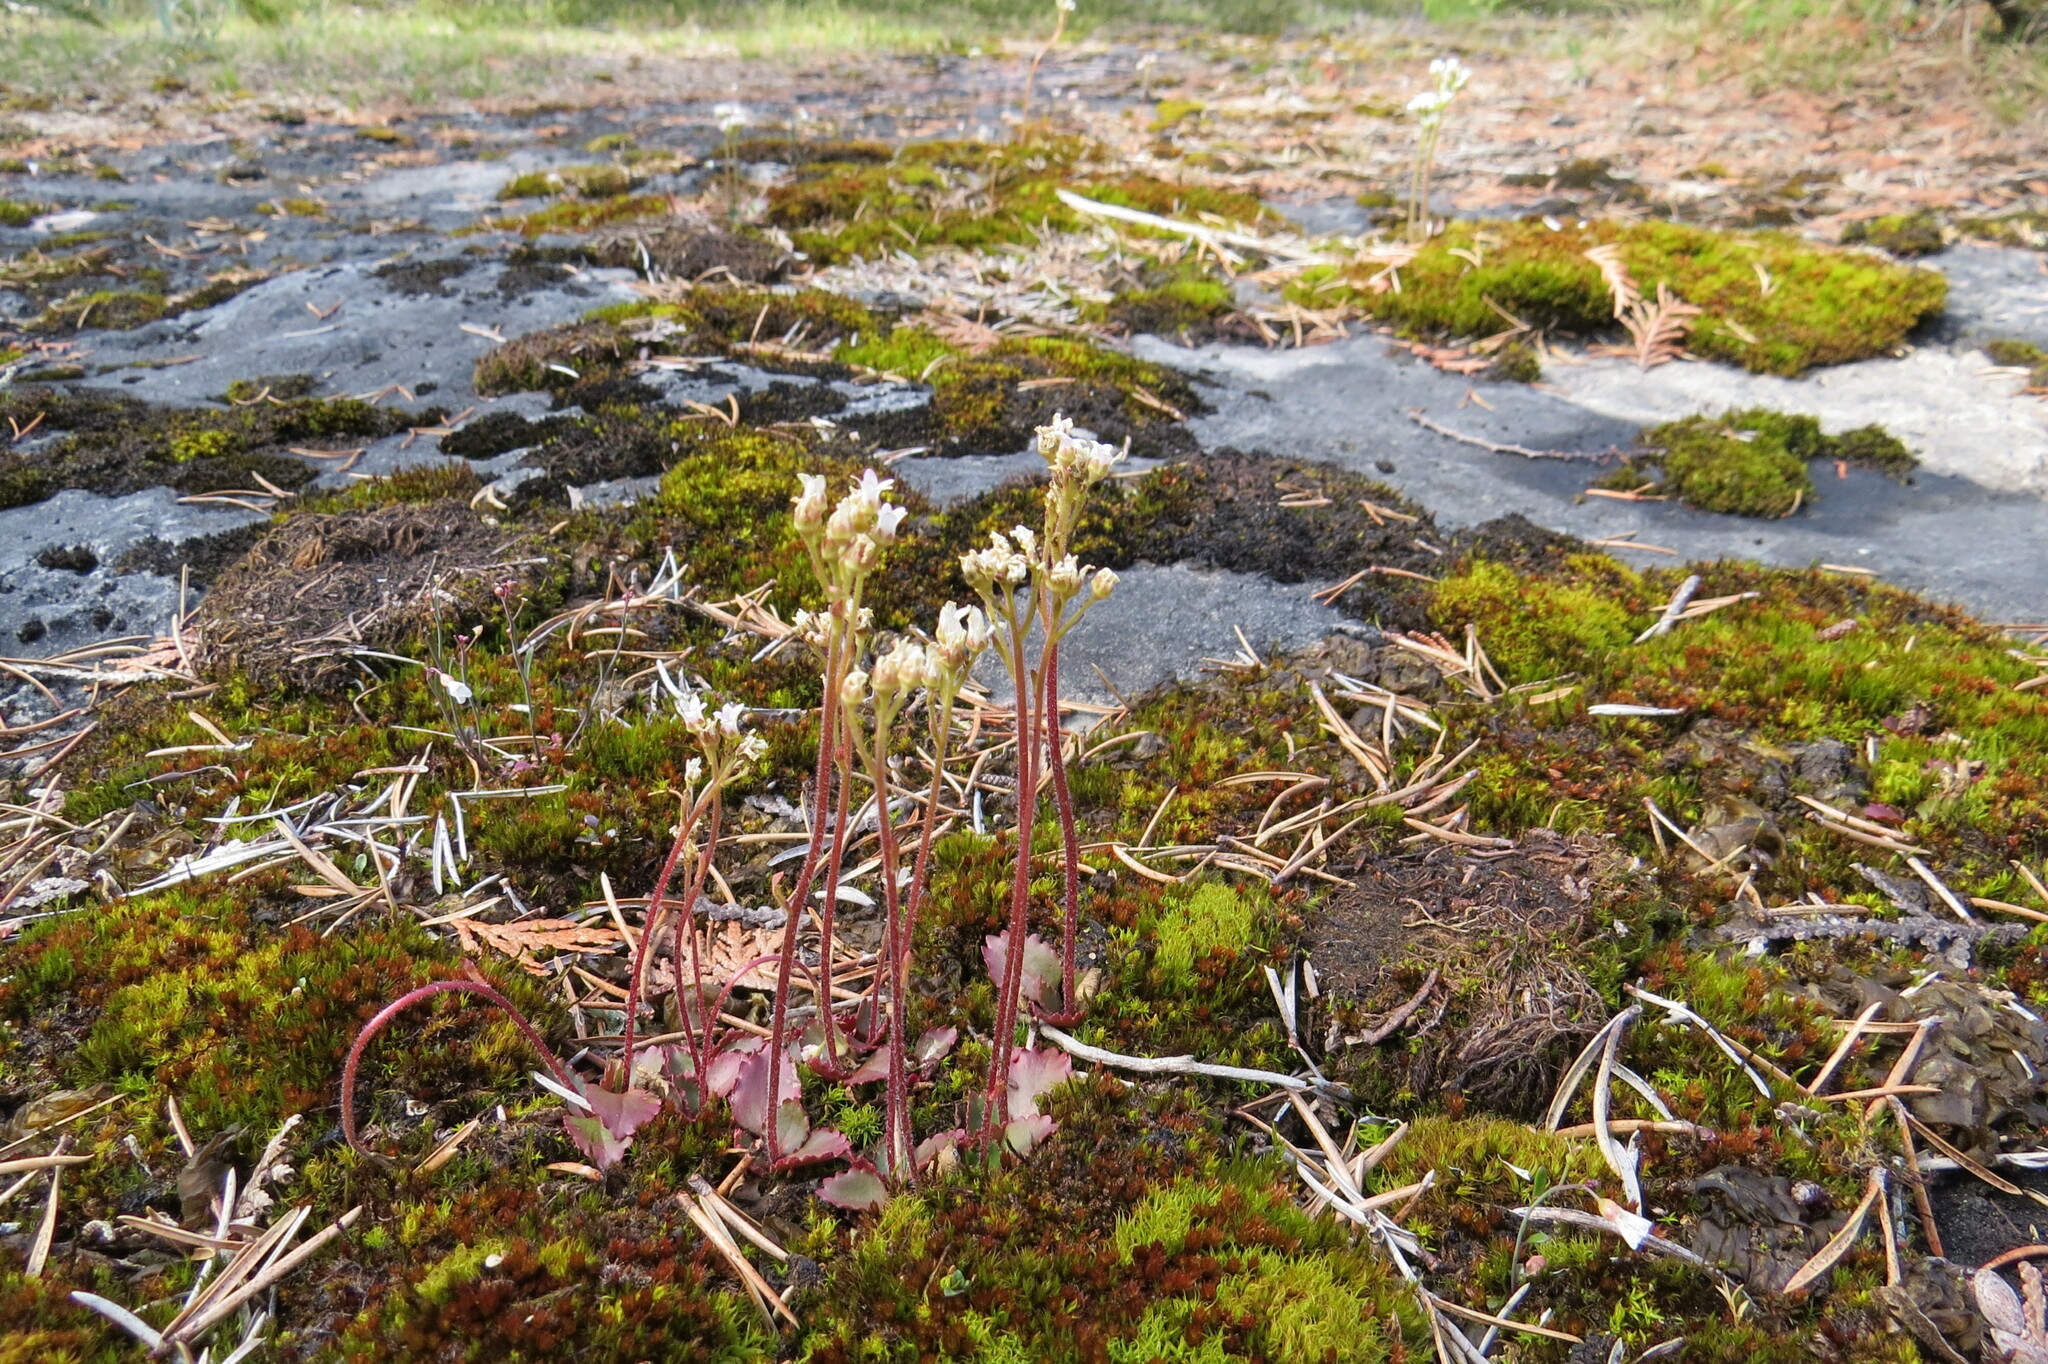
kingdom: Plantae
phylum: Tracheophyta
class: Magnoliopsida
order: Saxifragales
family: Saxifragaceae
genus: Micranthes
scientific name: Micranthes virginiensis
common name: Early saxifrage
